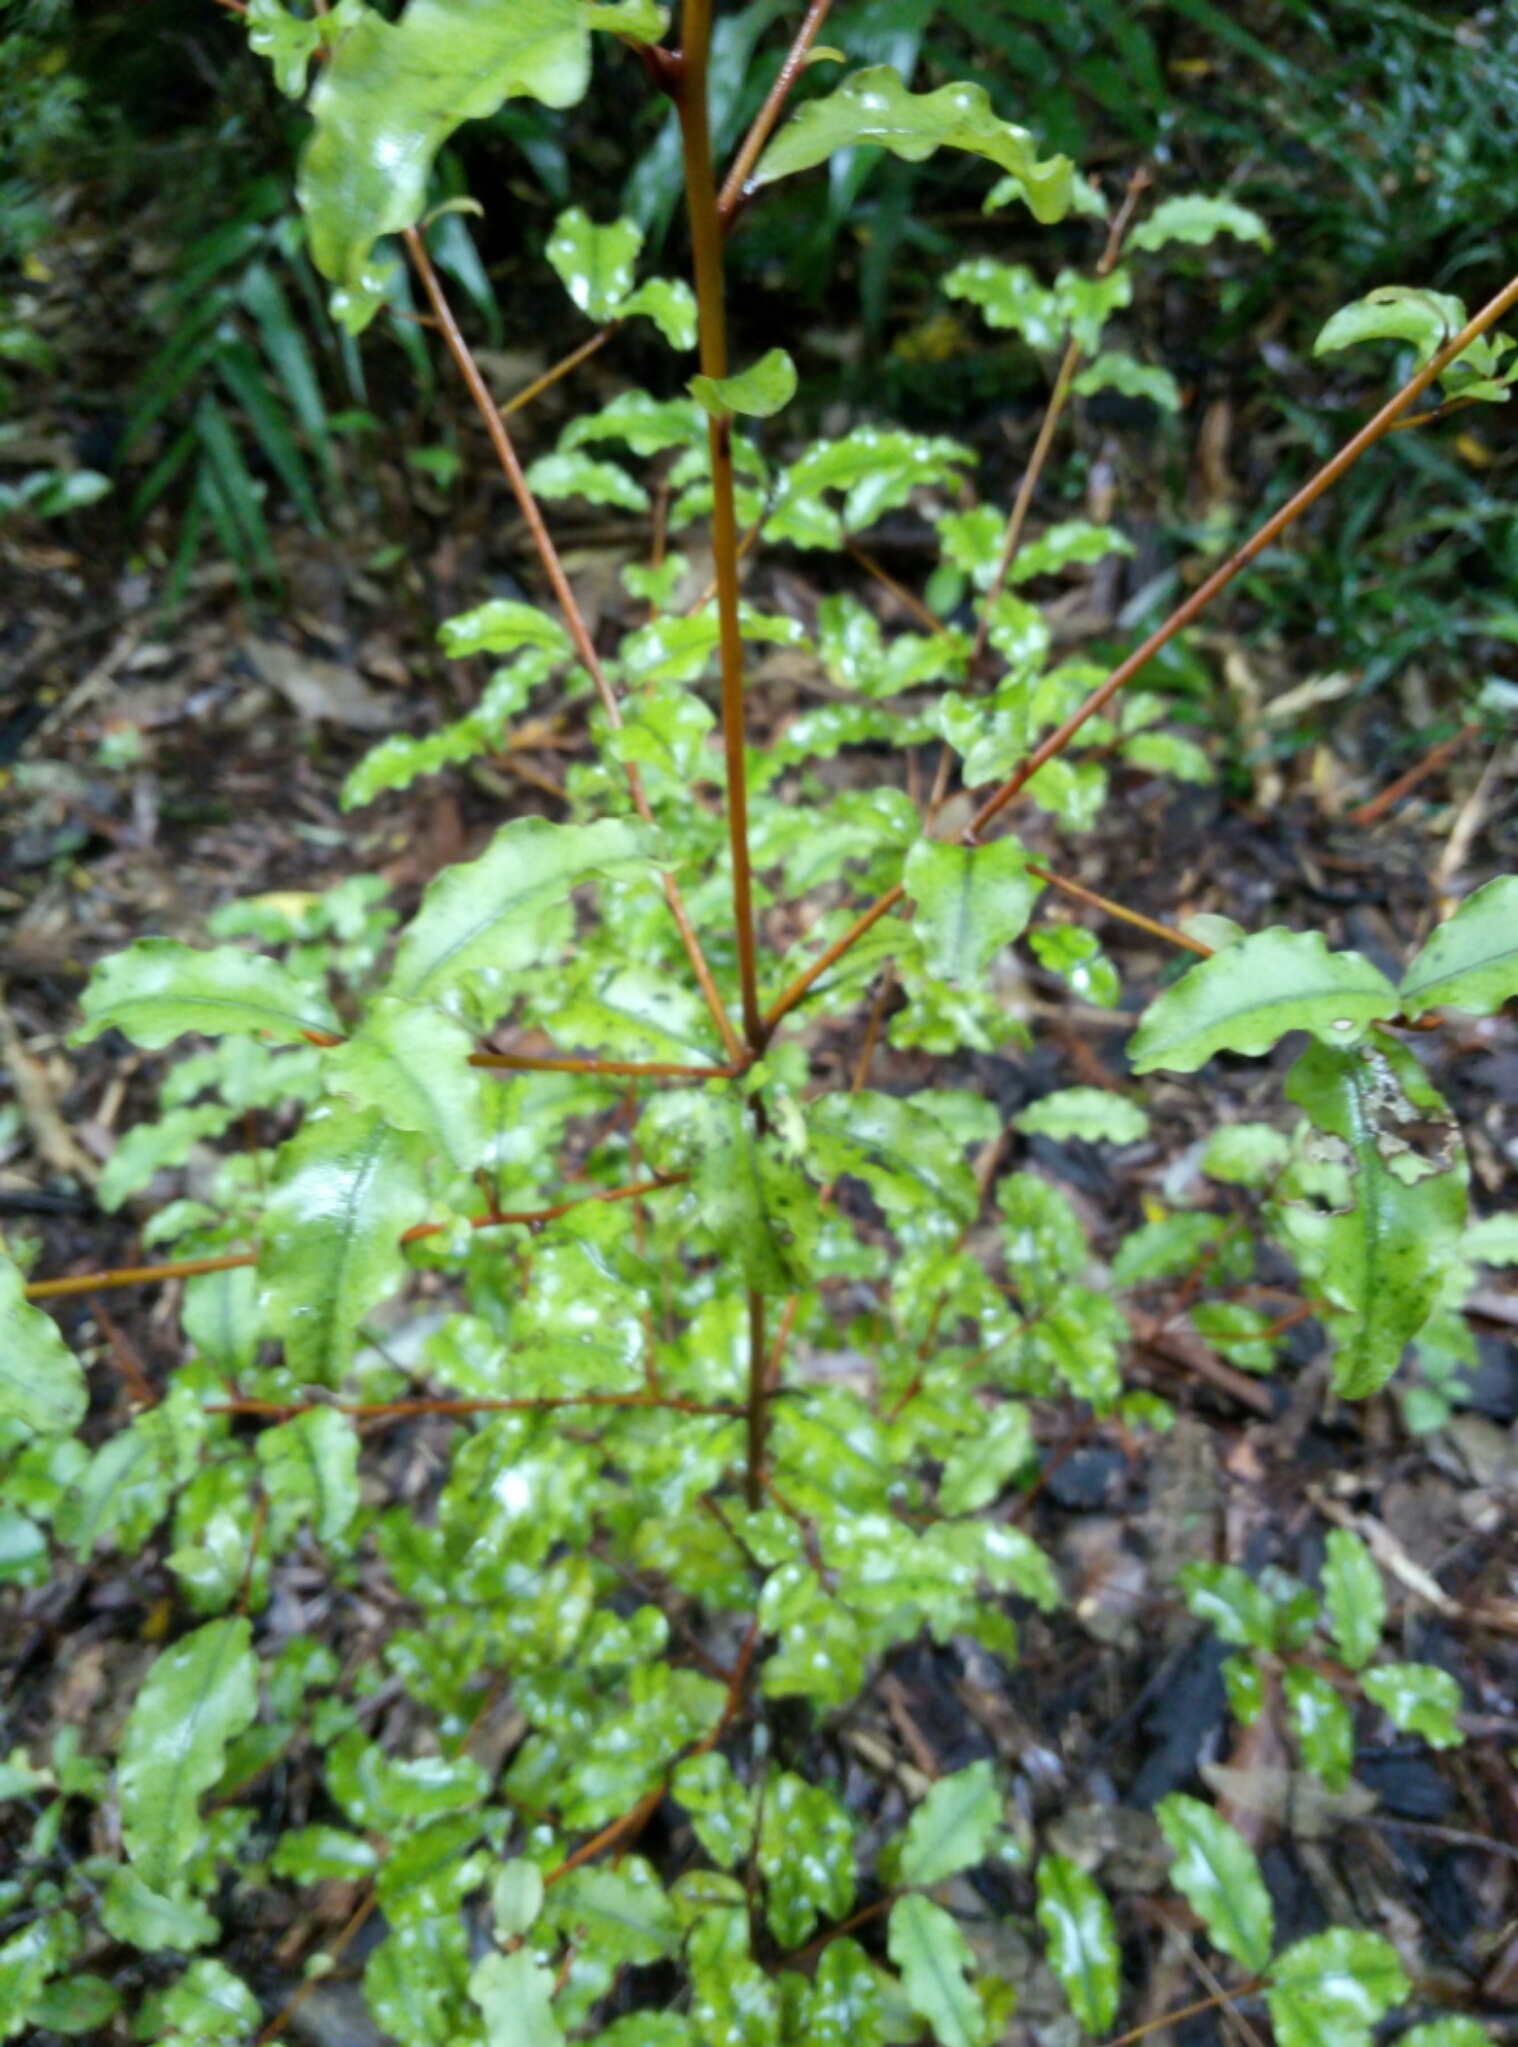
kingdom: Plantae
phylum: Tracheophyta
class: Magnoliopsida
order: Ericales
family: Primulaceae
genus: Myrsine
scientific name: Myrsine australis
